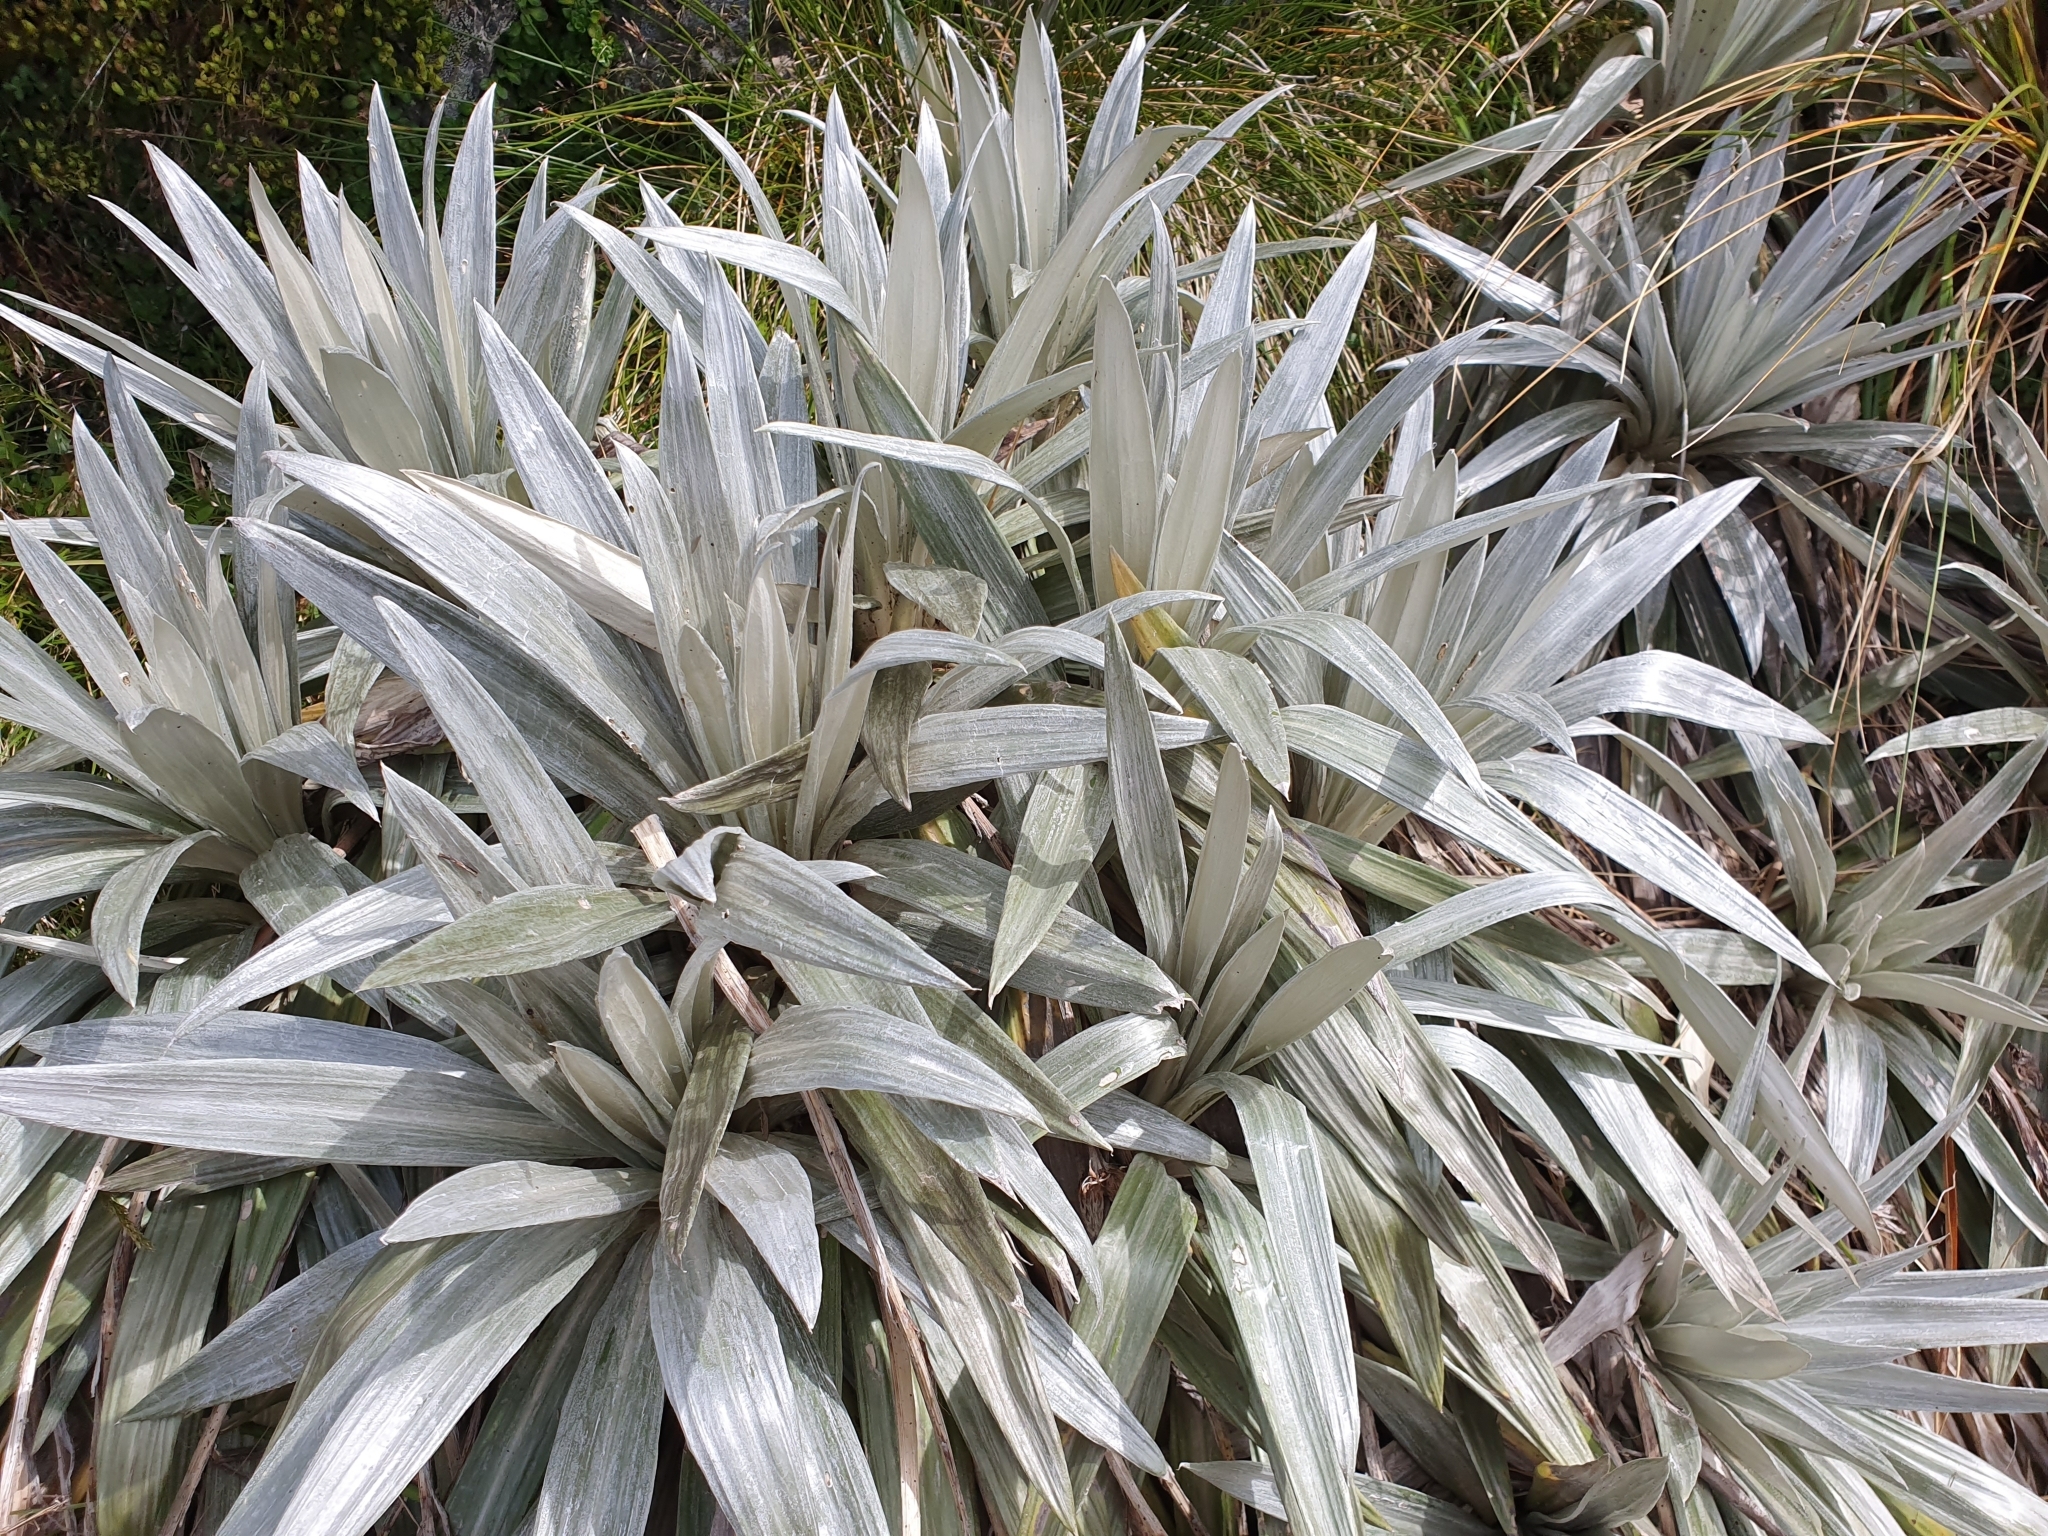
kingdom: Plantae
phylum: Tracheophyta
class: Magnoliopsida
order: Asterales
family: Asteraceae
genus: Celmisia
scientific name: Celmisia semicordata
